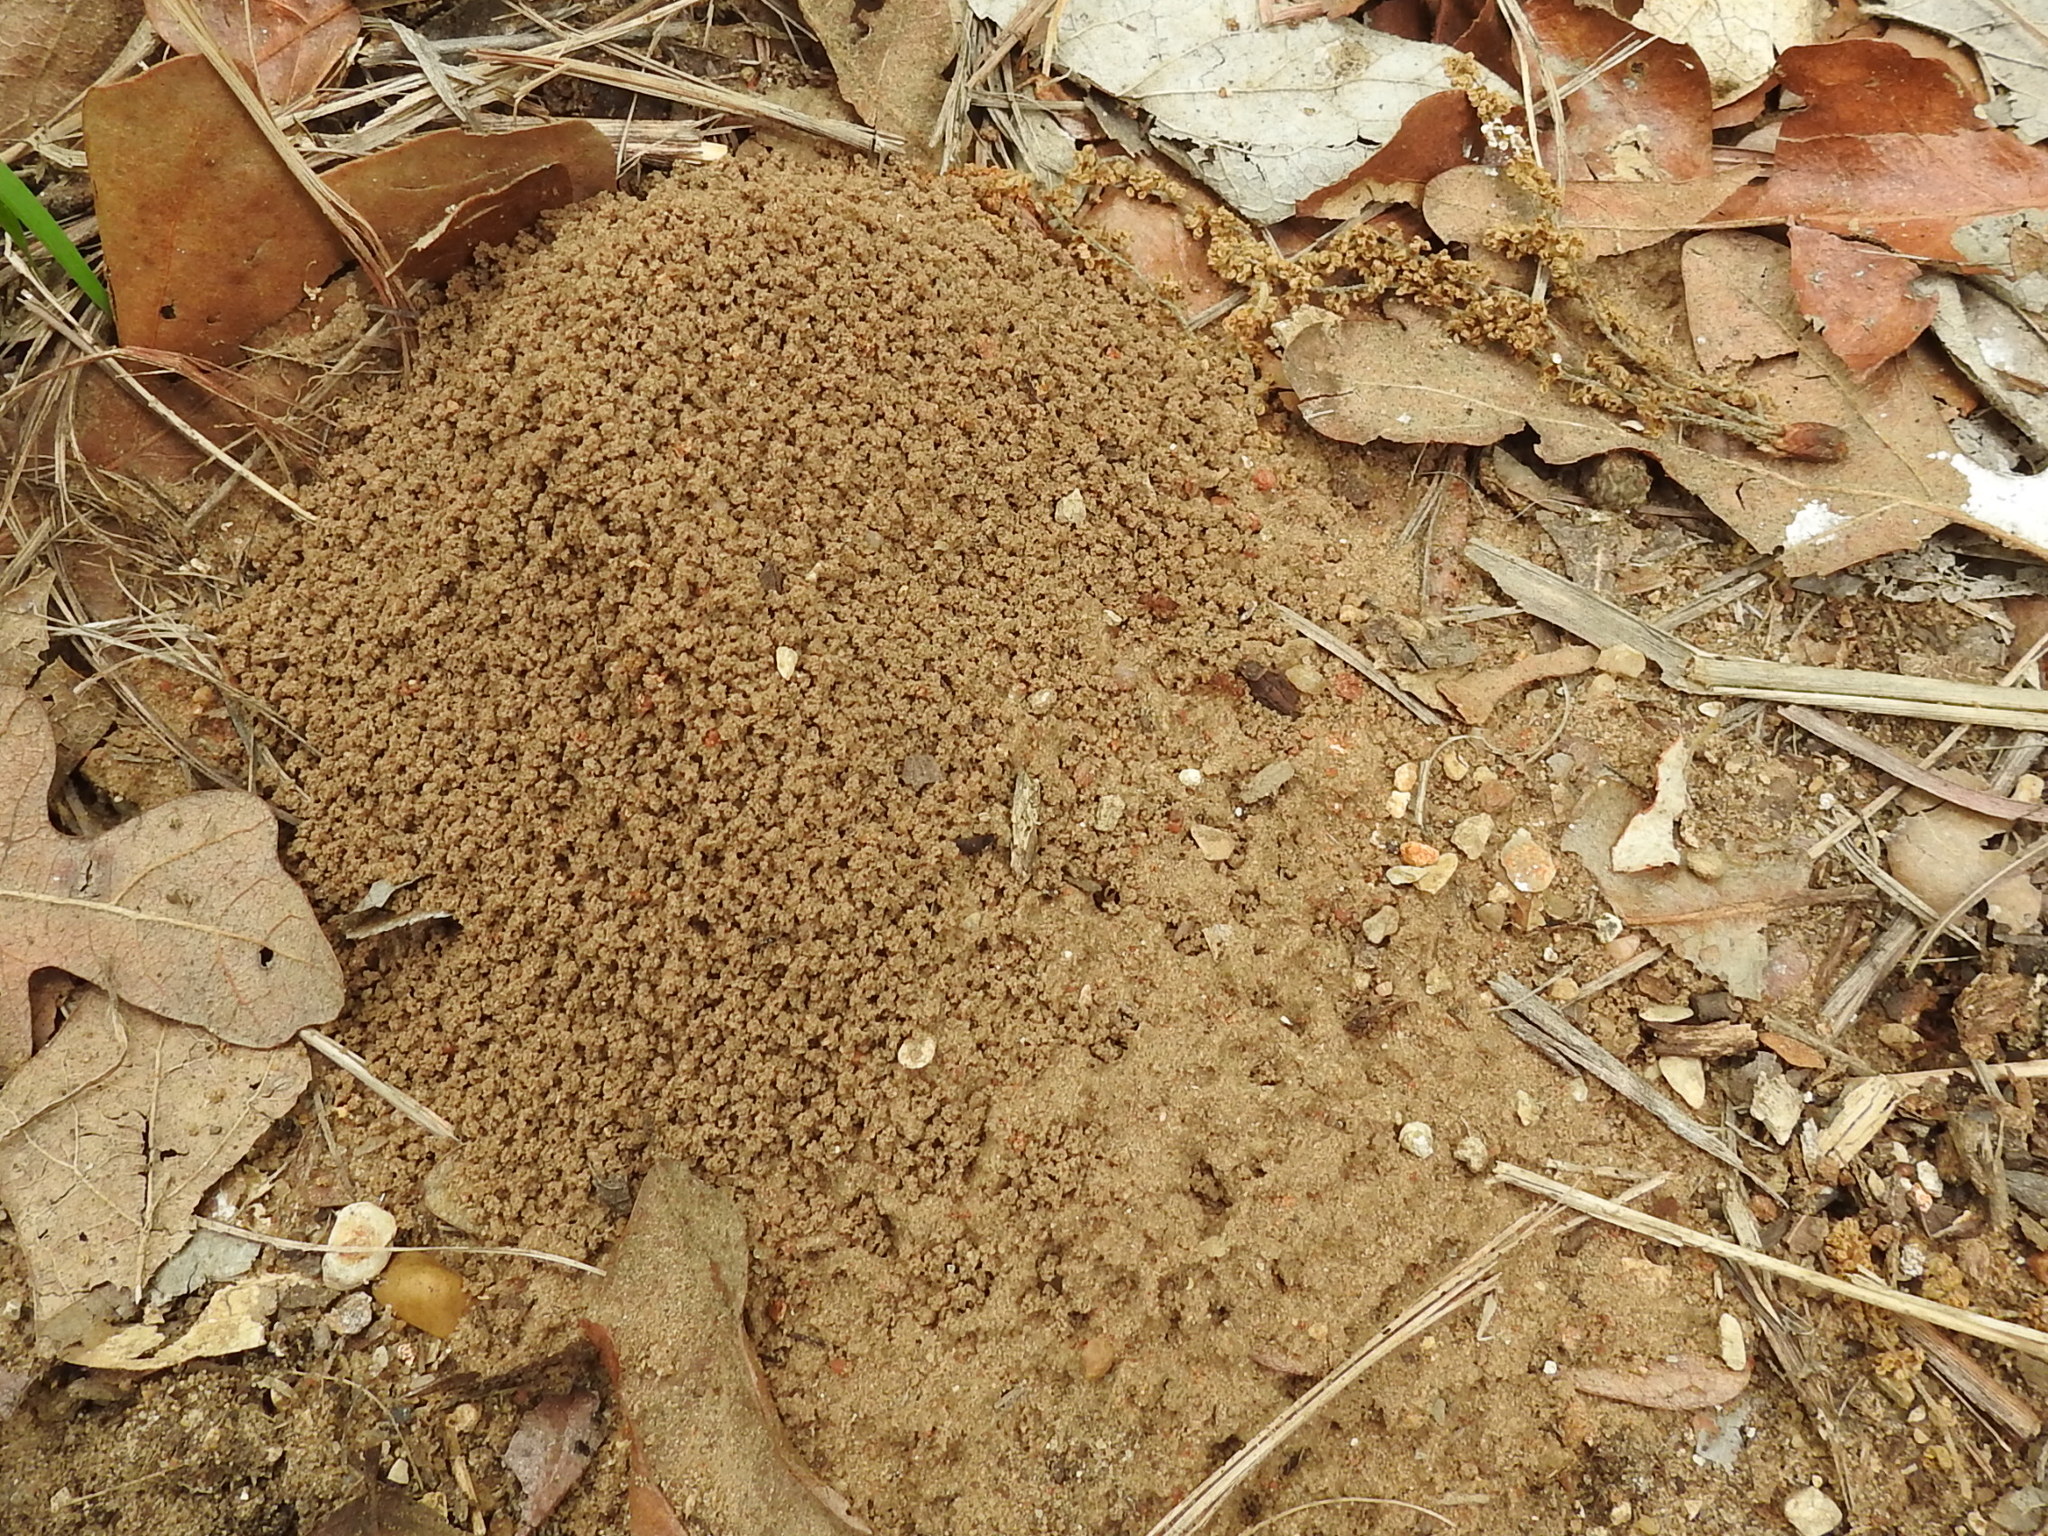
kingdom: Animalia
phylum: Arthropoda
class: Insecta
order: Hymenoptera
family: Formicidae
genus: Trachymyrmex
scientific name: Trachymyrmex septentrionalis
